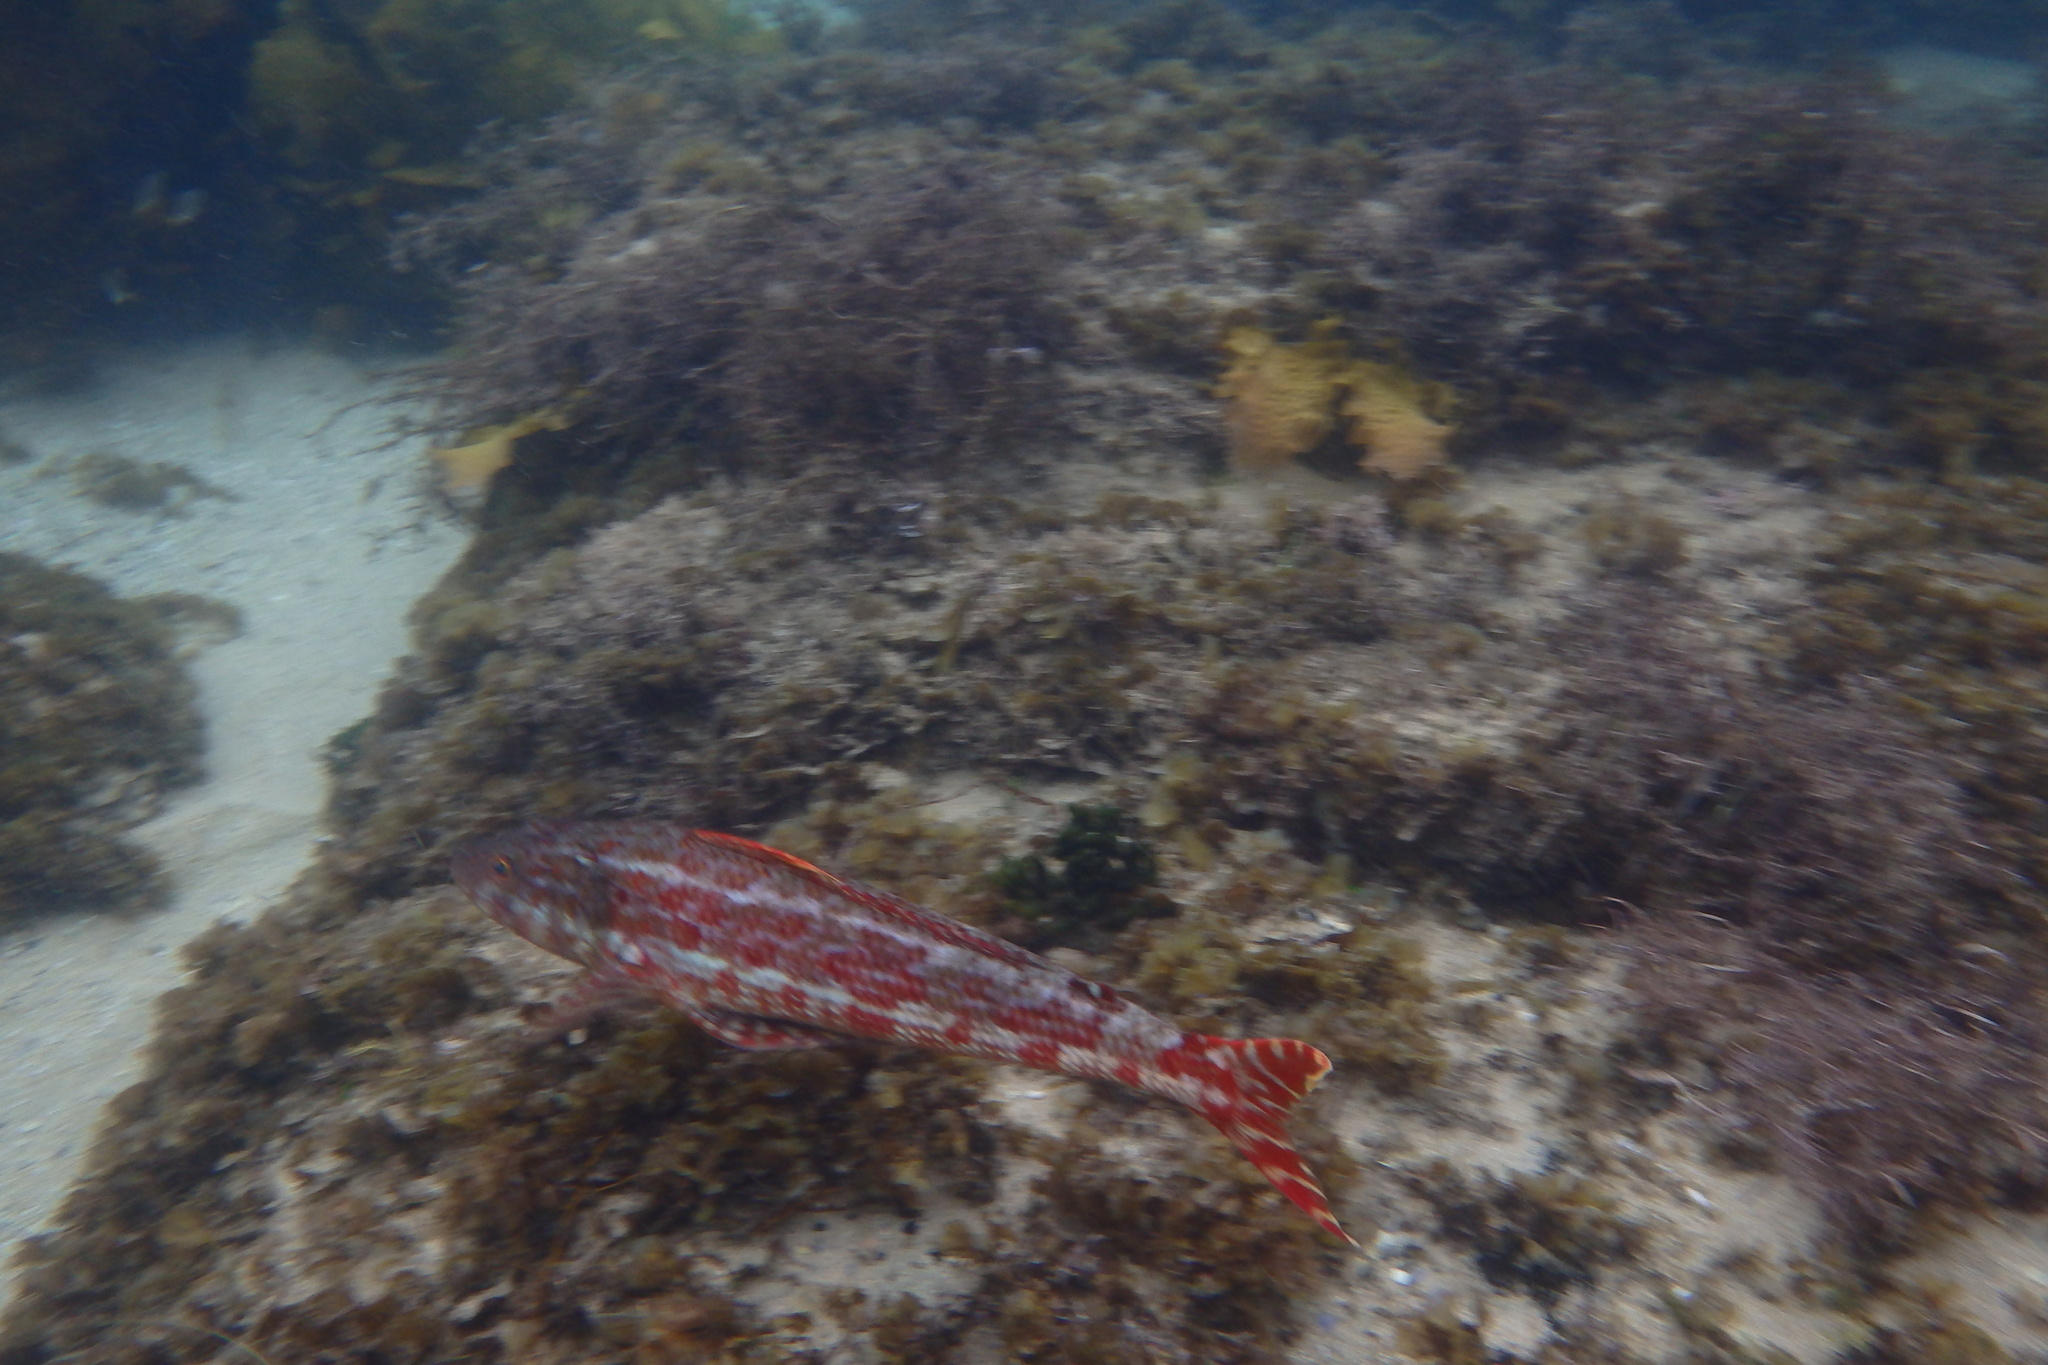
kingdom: Animalia
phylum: Chordata
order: Aulopiformes
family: Aulopidae
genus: Latropiscis
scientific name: Latropiscis purpurissatus
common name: Sergeant baker
